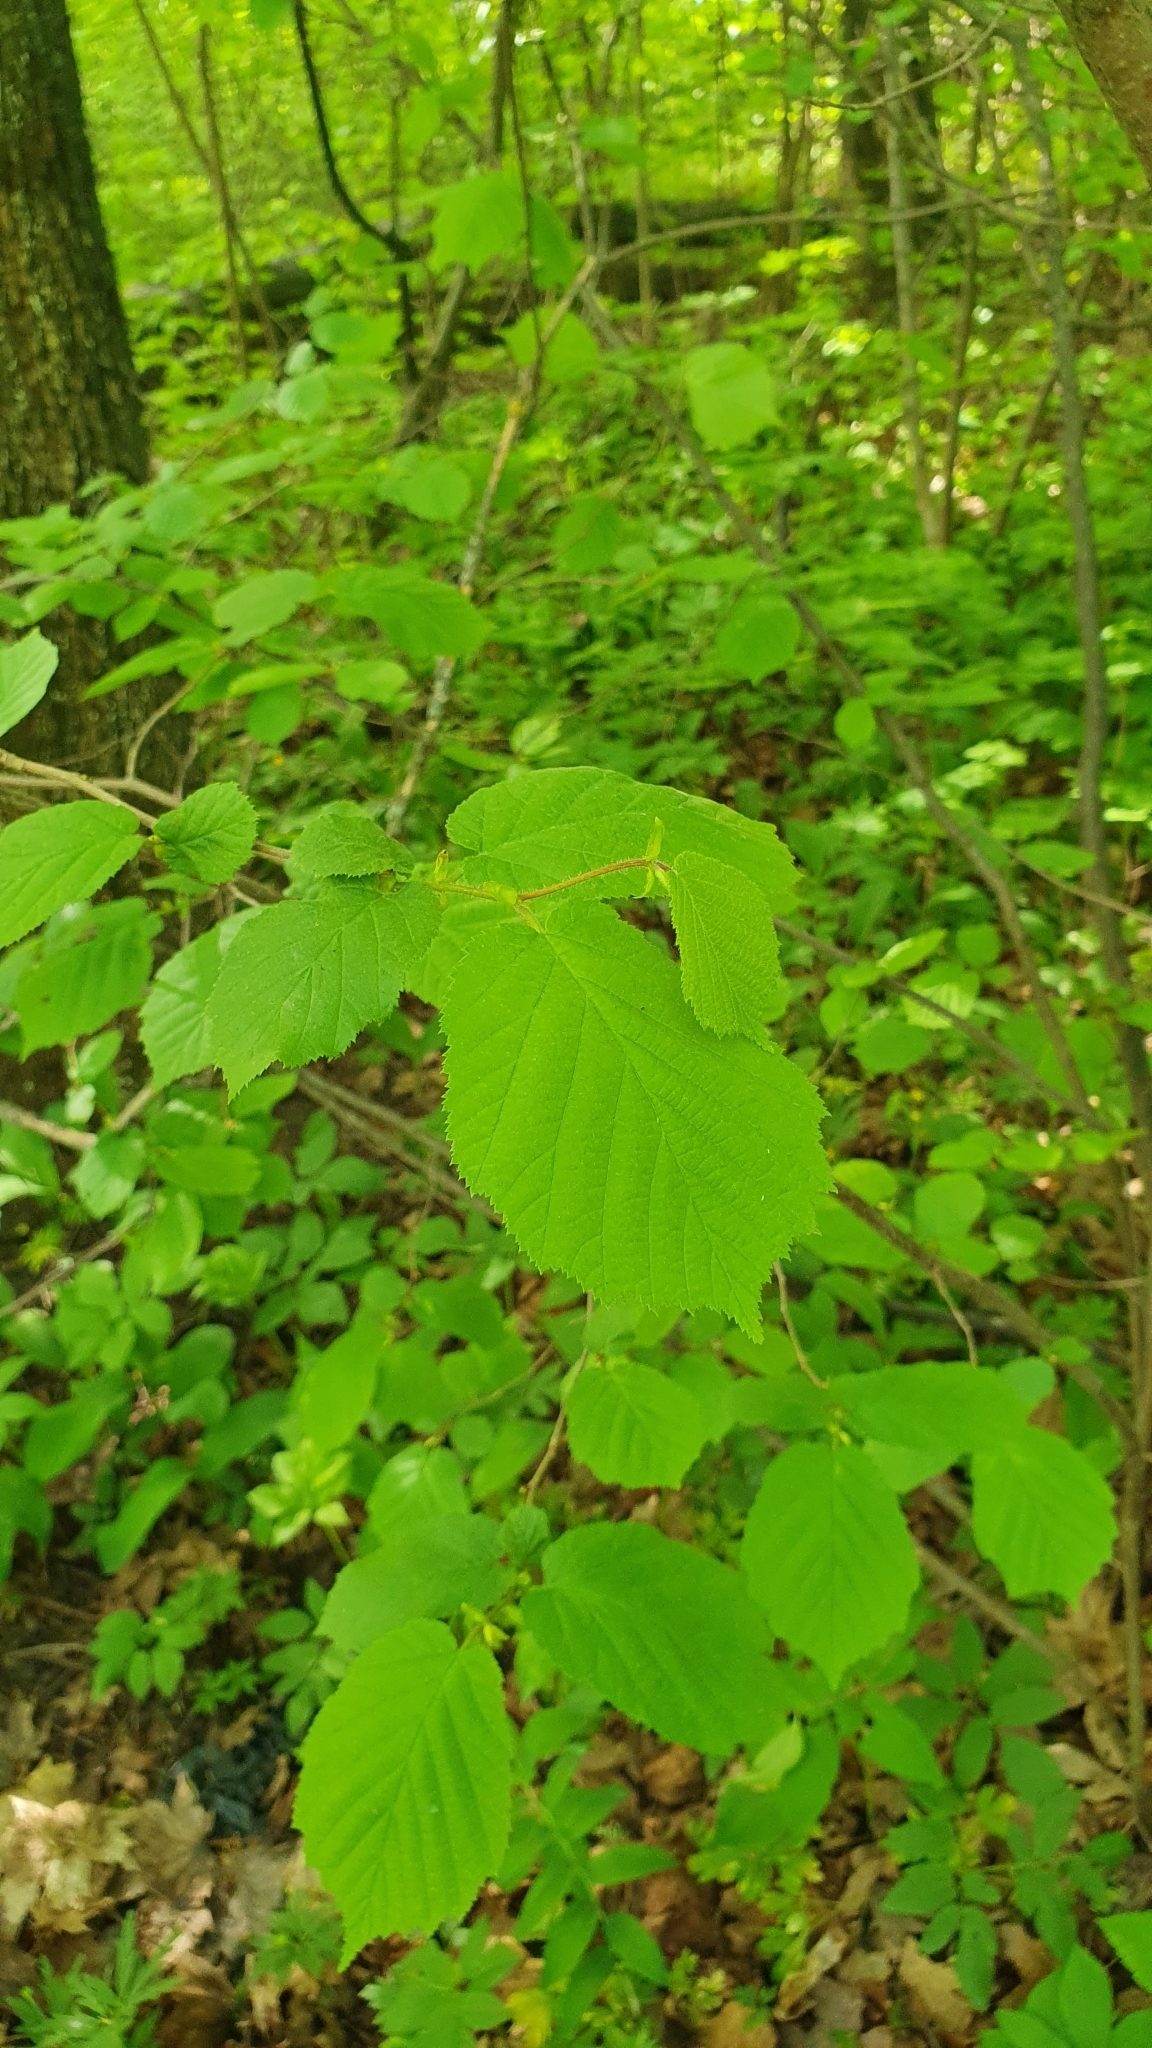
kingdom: Plantae
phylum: Tracheophyta
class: Magnoliopsida
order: Fagales
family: Betulaceae
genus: Corylus
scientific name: Corylus avellana
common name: European hazel
